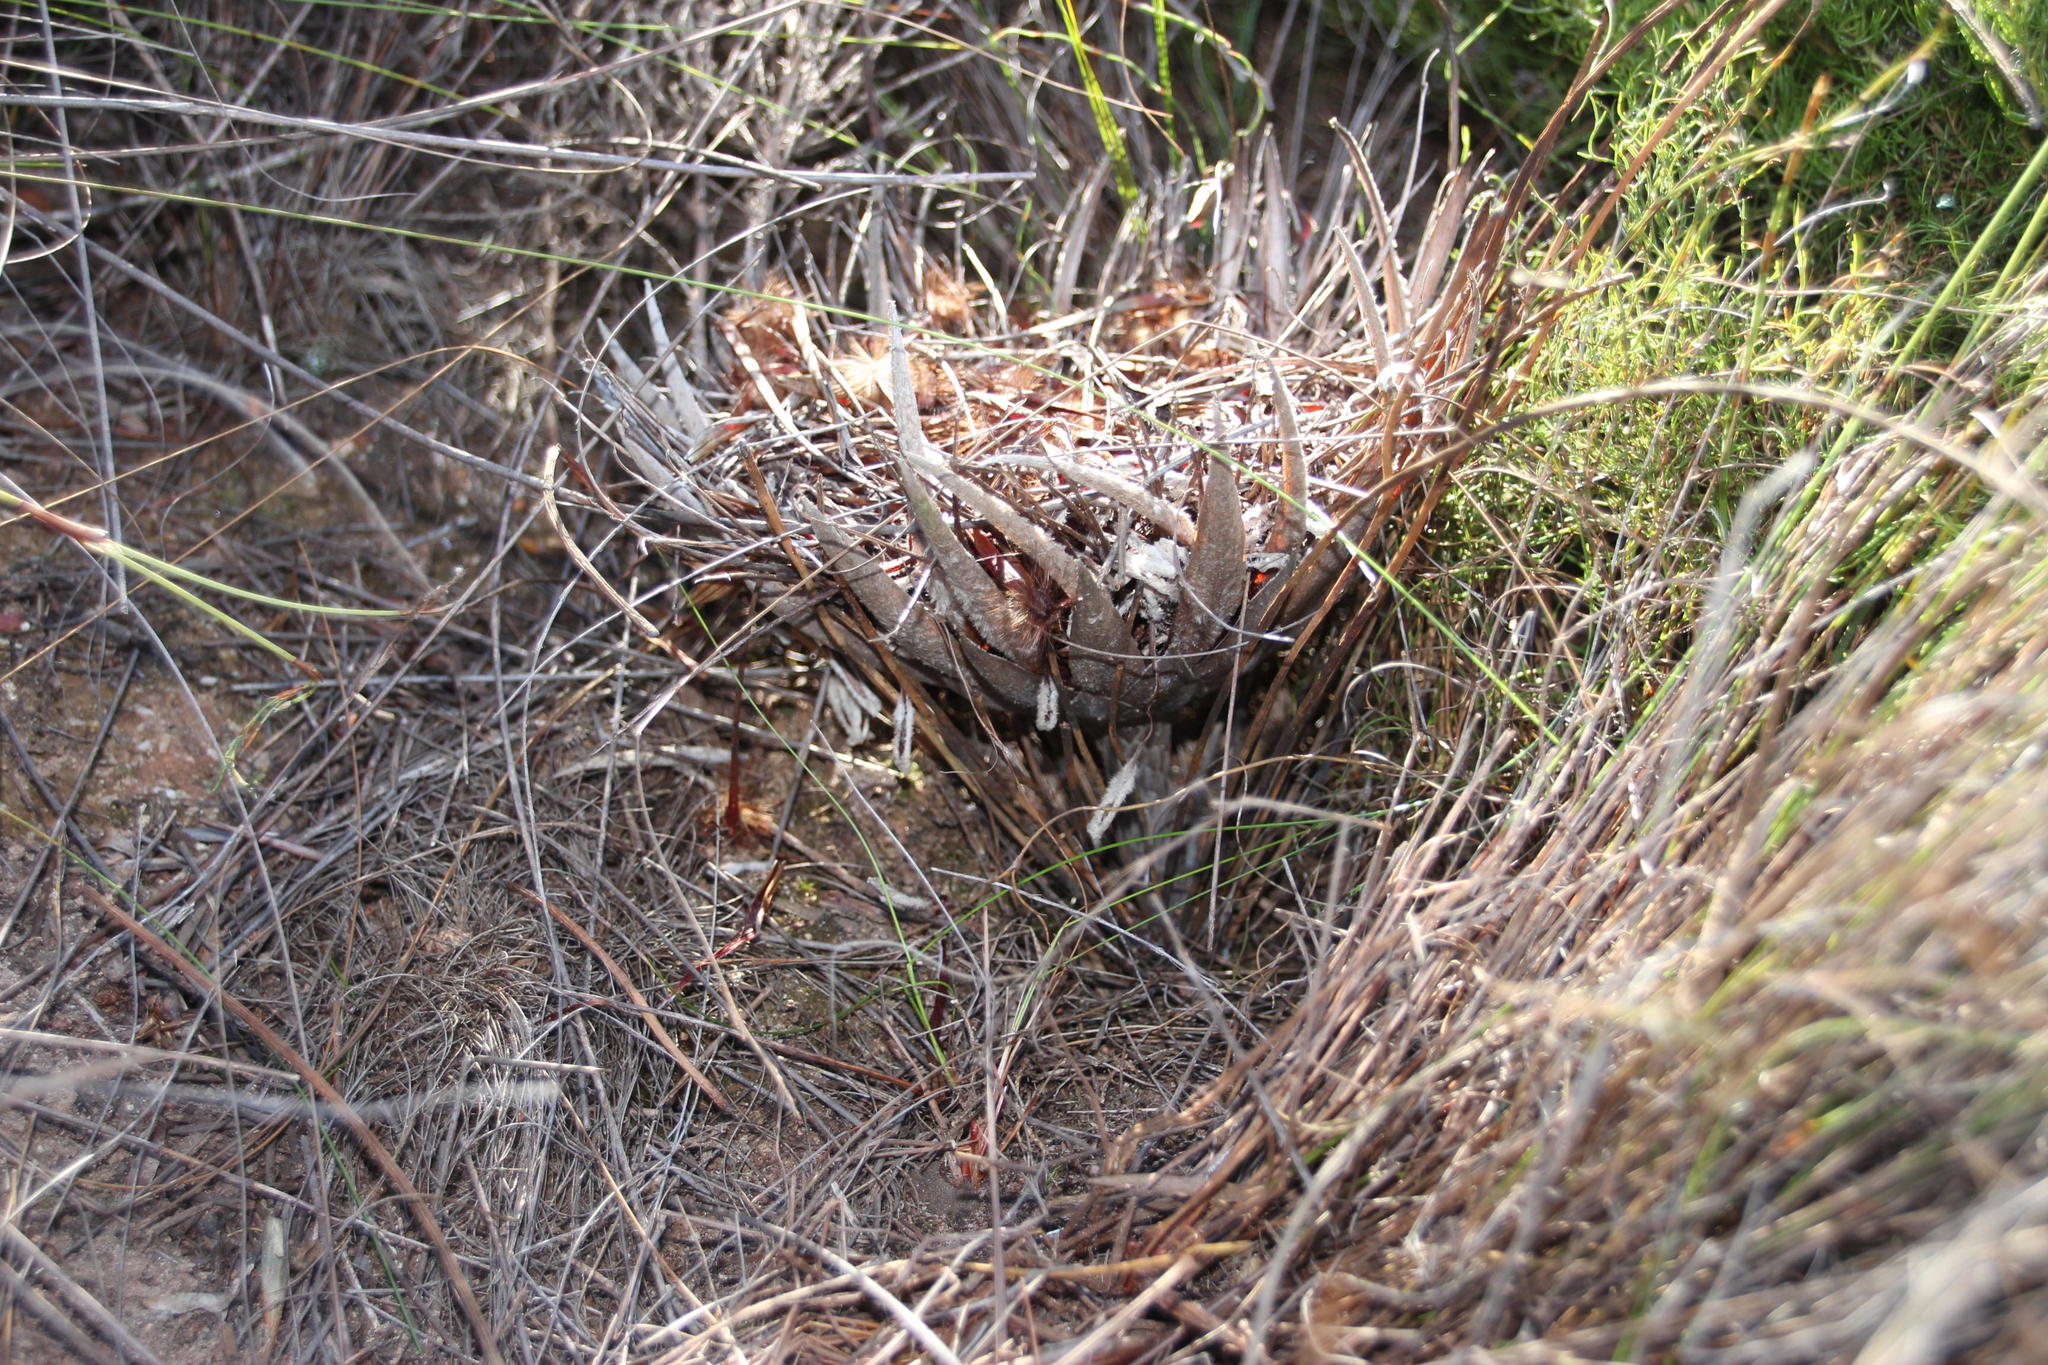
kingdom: Plantae
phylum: Tracheophyta
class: Magnoliopsida
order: Proteales
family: Proteaceae
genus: Protea
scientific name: Protea lorea
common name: Thong-leaf sugarbush
